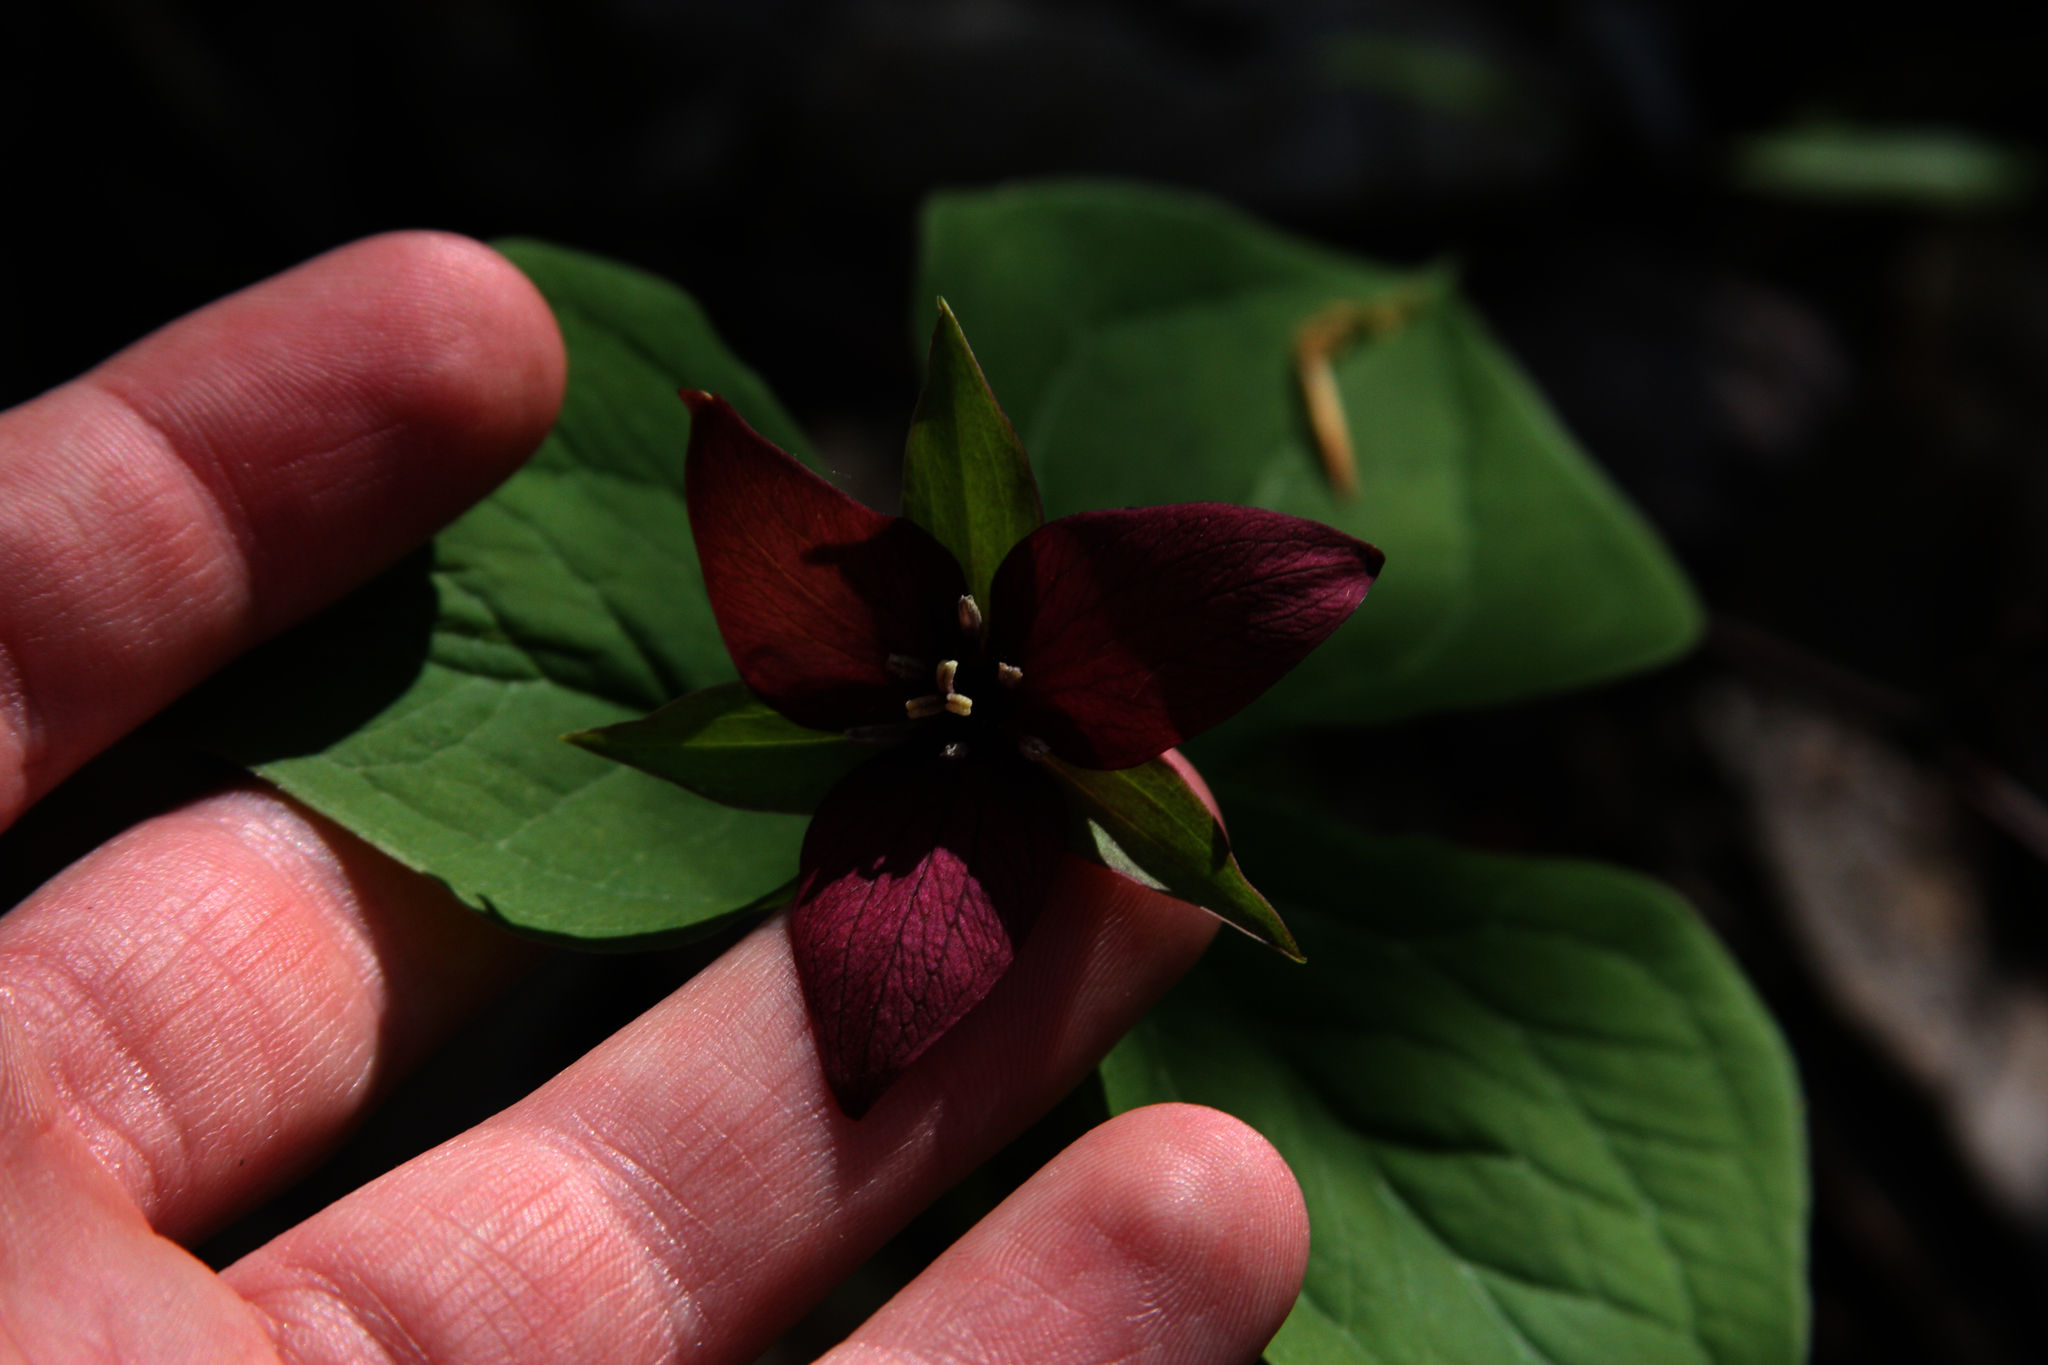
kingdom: Plantae
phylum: Tracheophyta
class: Liliopsida
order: Liliales
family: Melanthiaceae
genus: Trillium
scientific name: Trillium erectum
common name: Purple trillium
